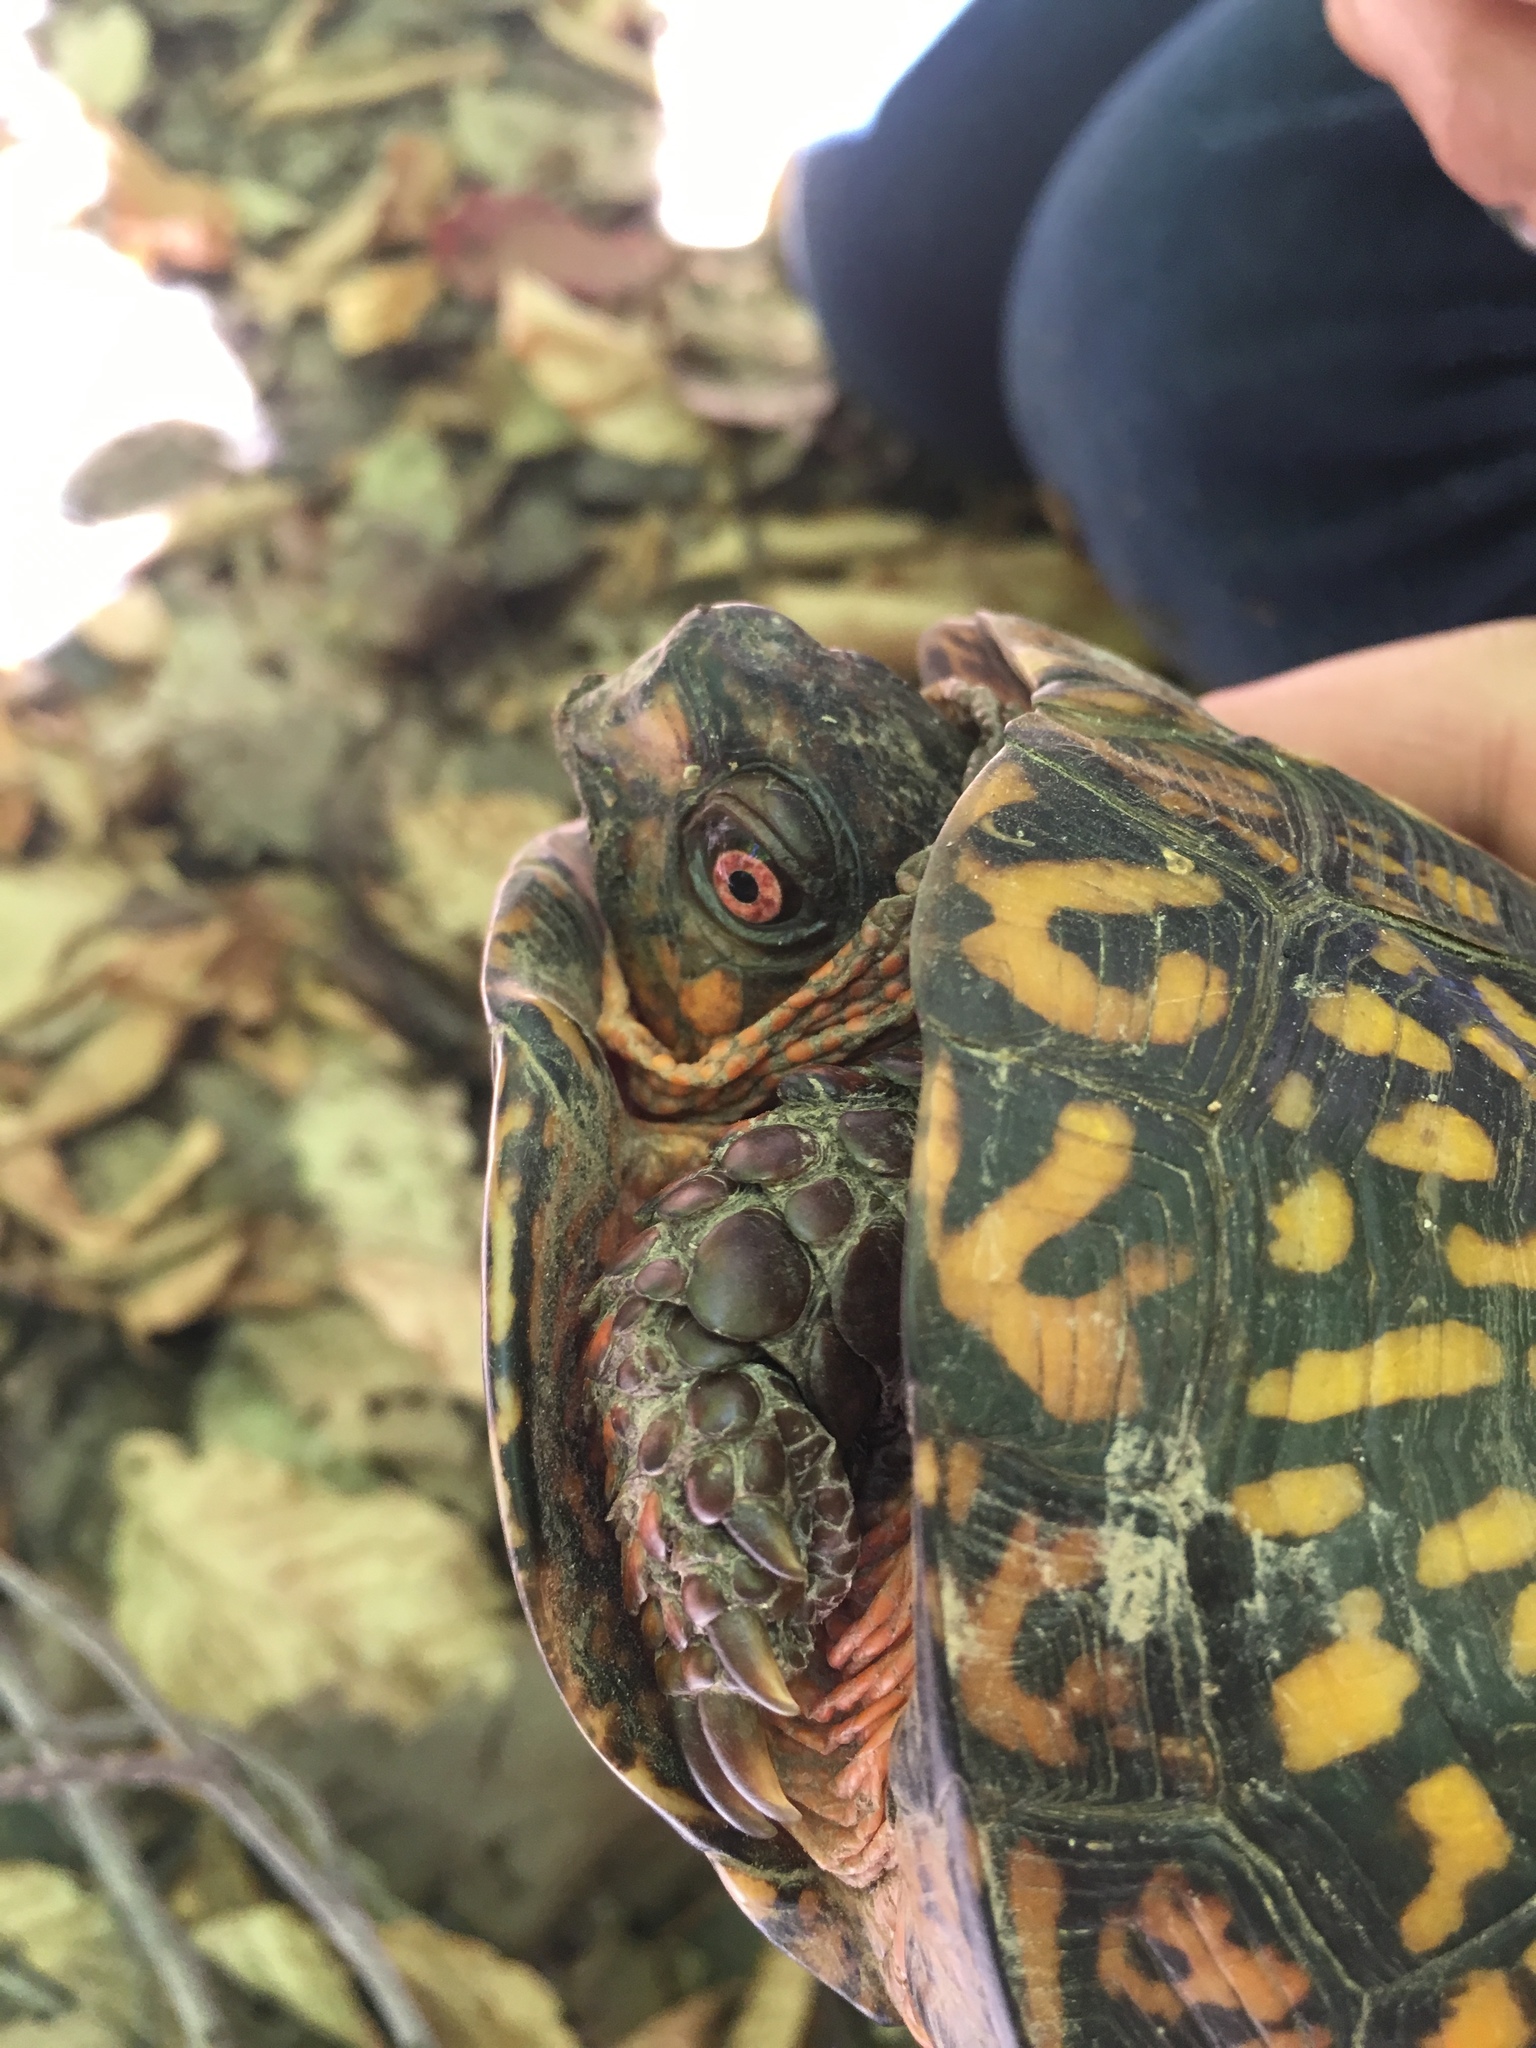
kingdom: Animalia
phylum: Chordata
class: Testudines
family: Emydidae
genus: Terrapene
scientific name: Terrapene carolina
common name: Common box turtle
